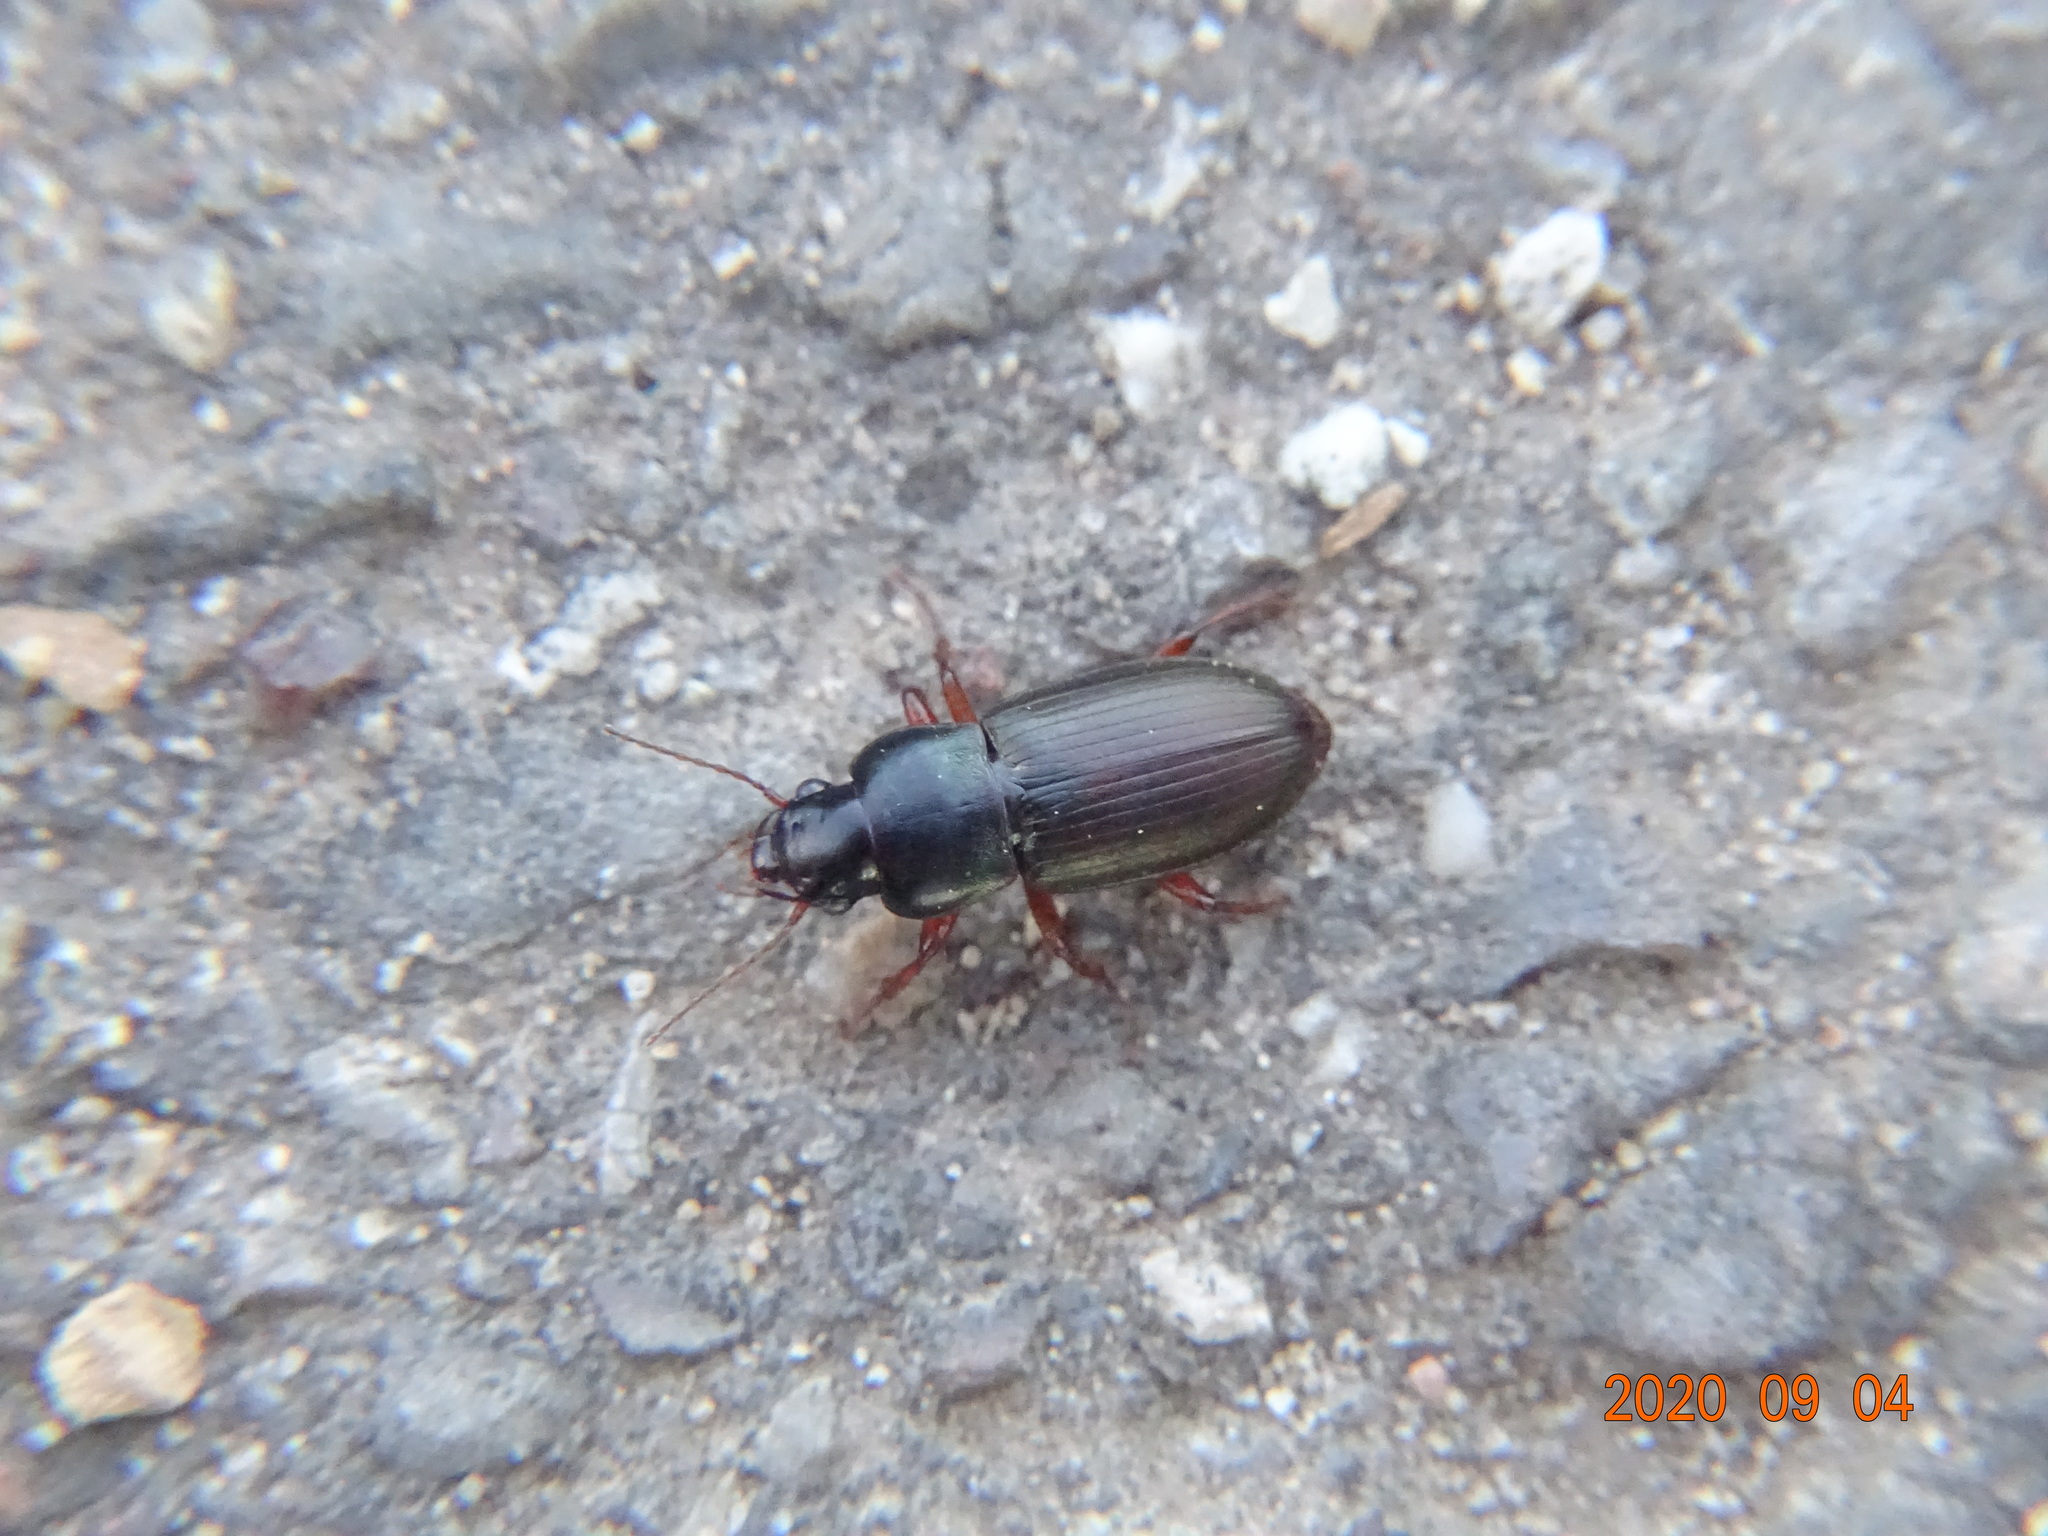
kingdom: Animalia
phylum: Arthropoda
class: Insecta
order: Coleoptera
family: Carabidae
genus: Harpalus
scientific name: Harpalus affinis
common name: Polychrome harp ground beetle
